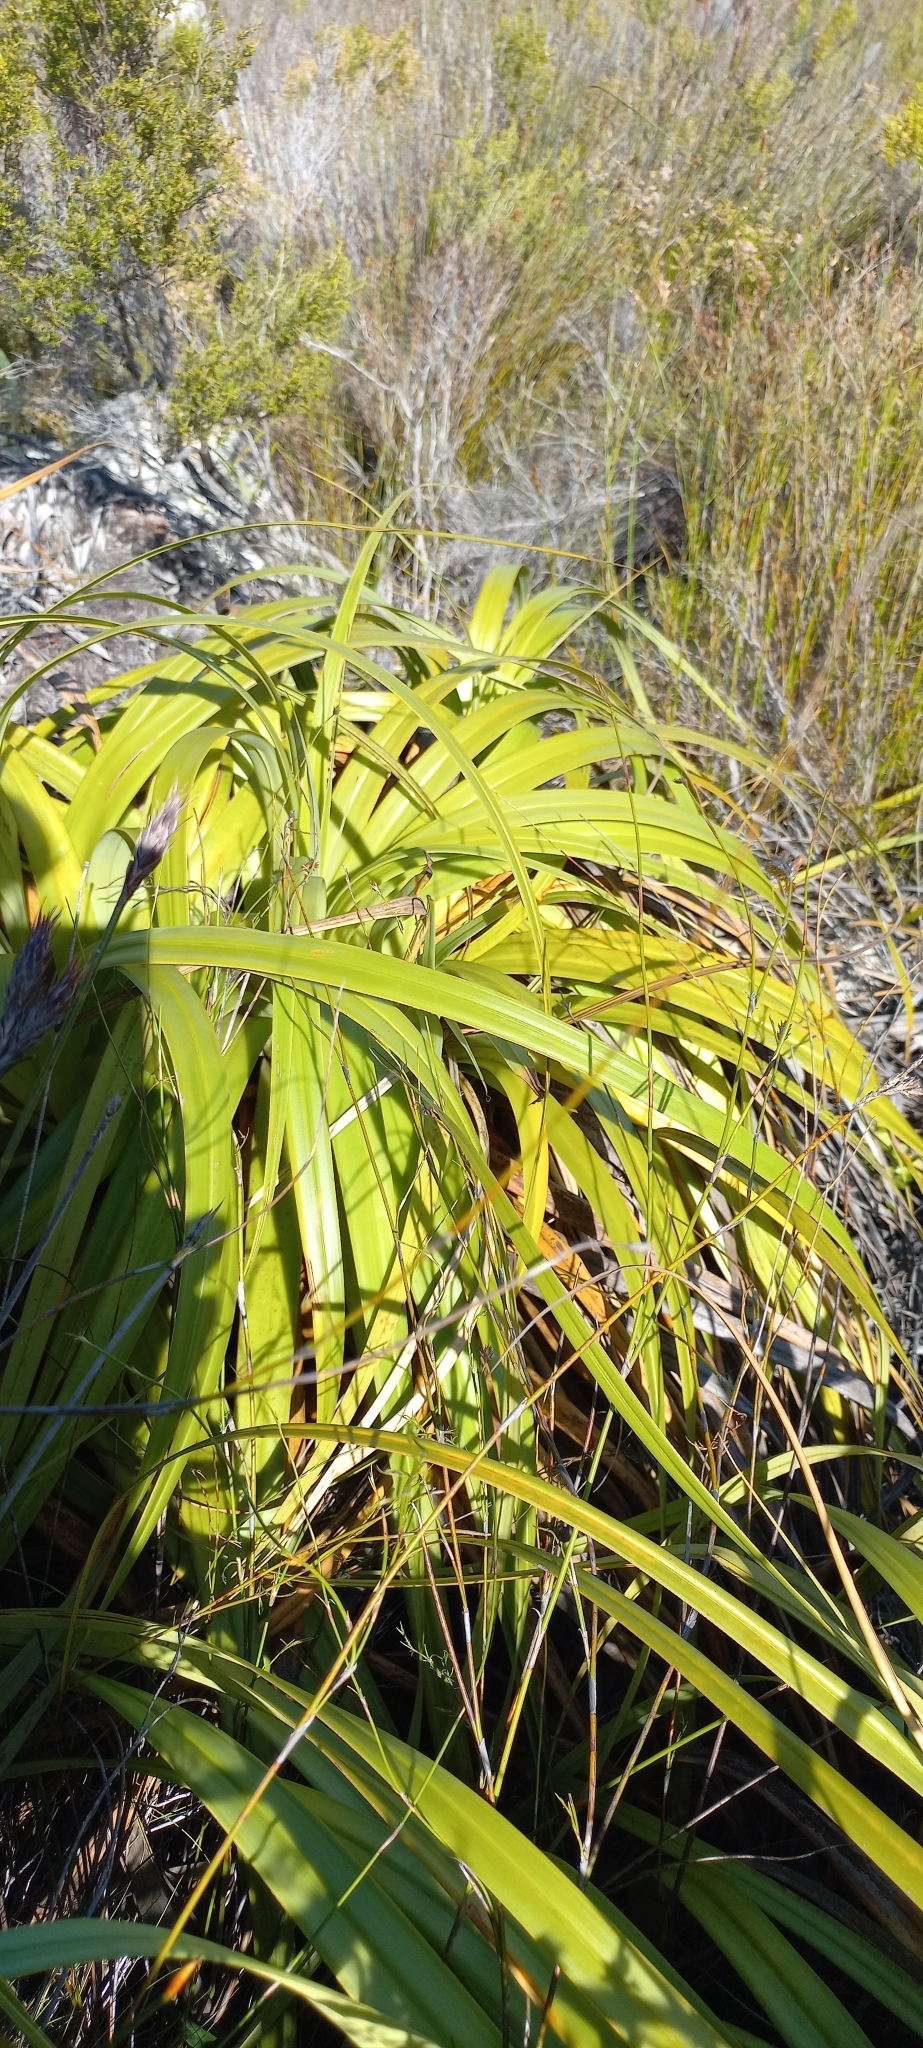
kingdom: Plantae
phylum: Tracheophyta
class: Liliopsida
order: Poales
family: Cyperaceae
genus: Tetraria
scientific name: Tetraria thermalis
